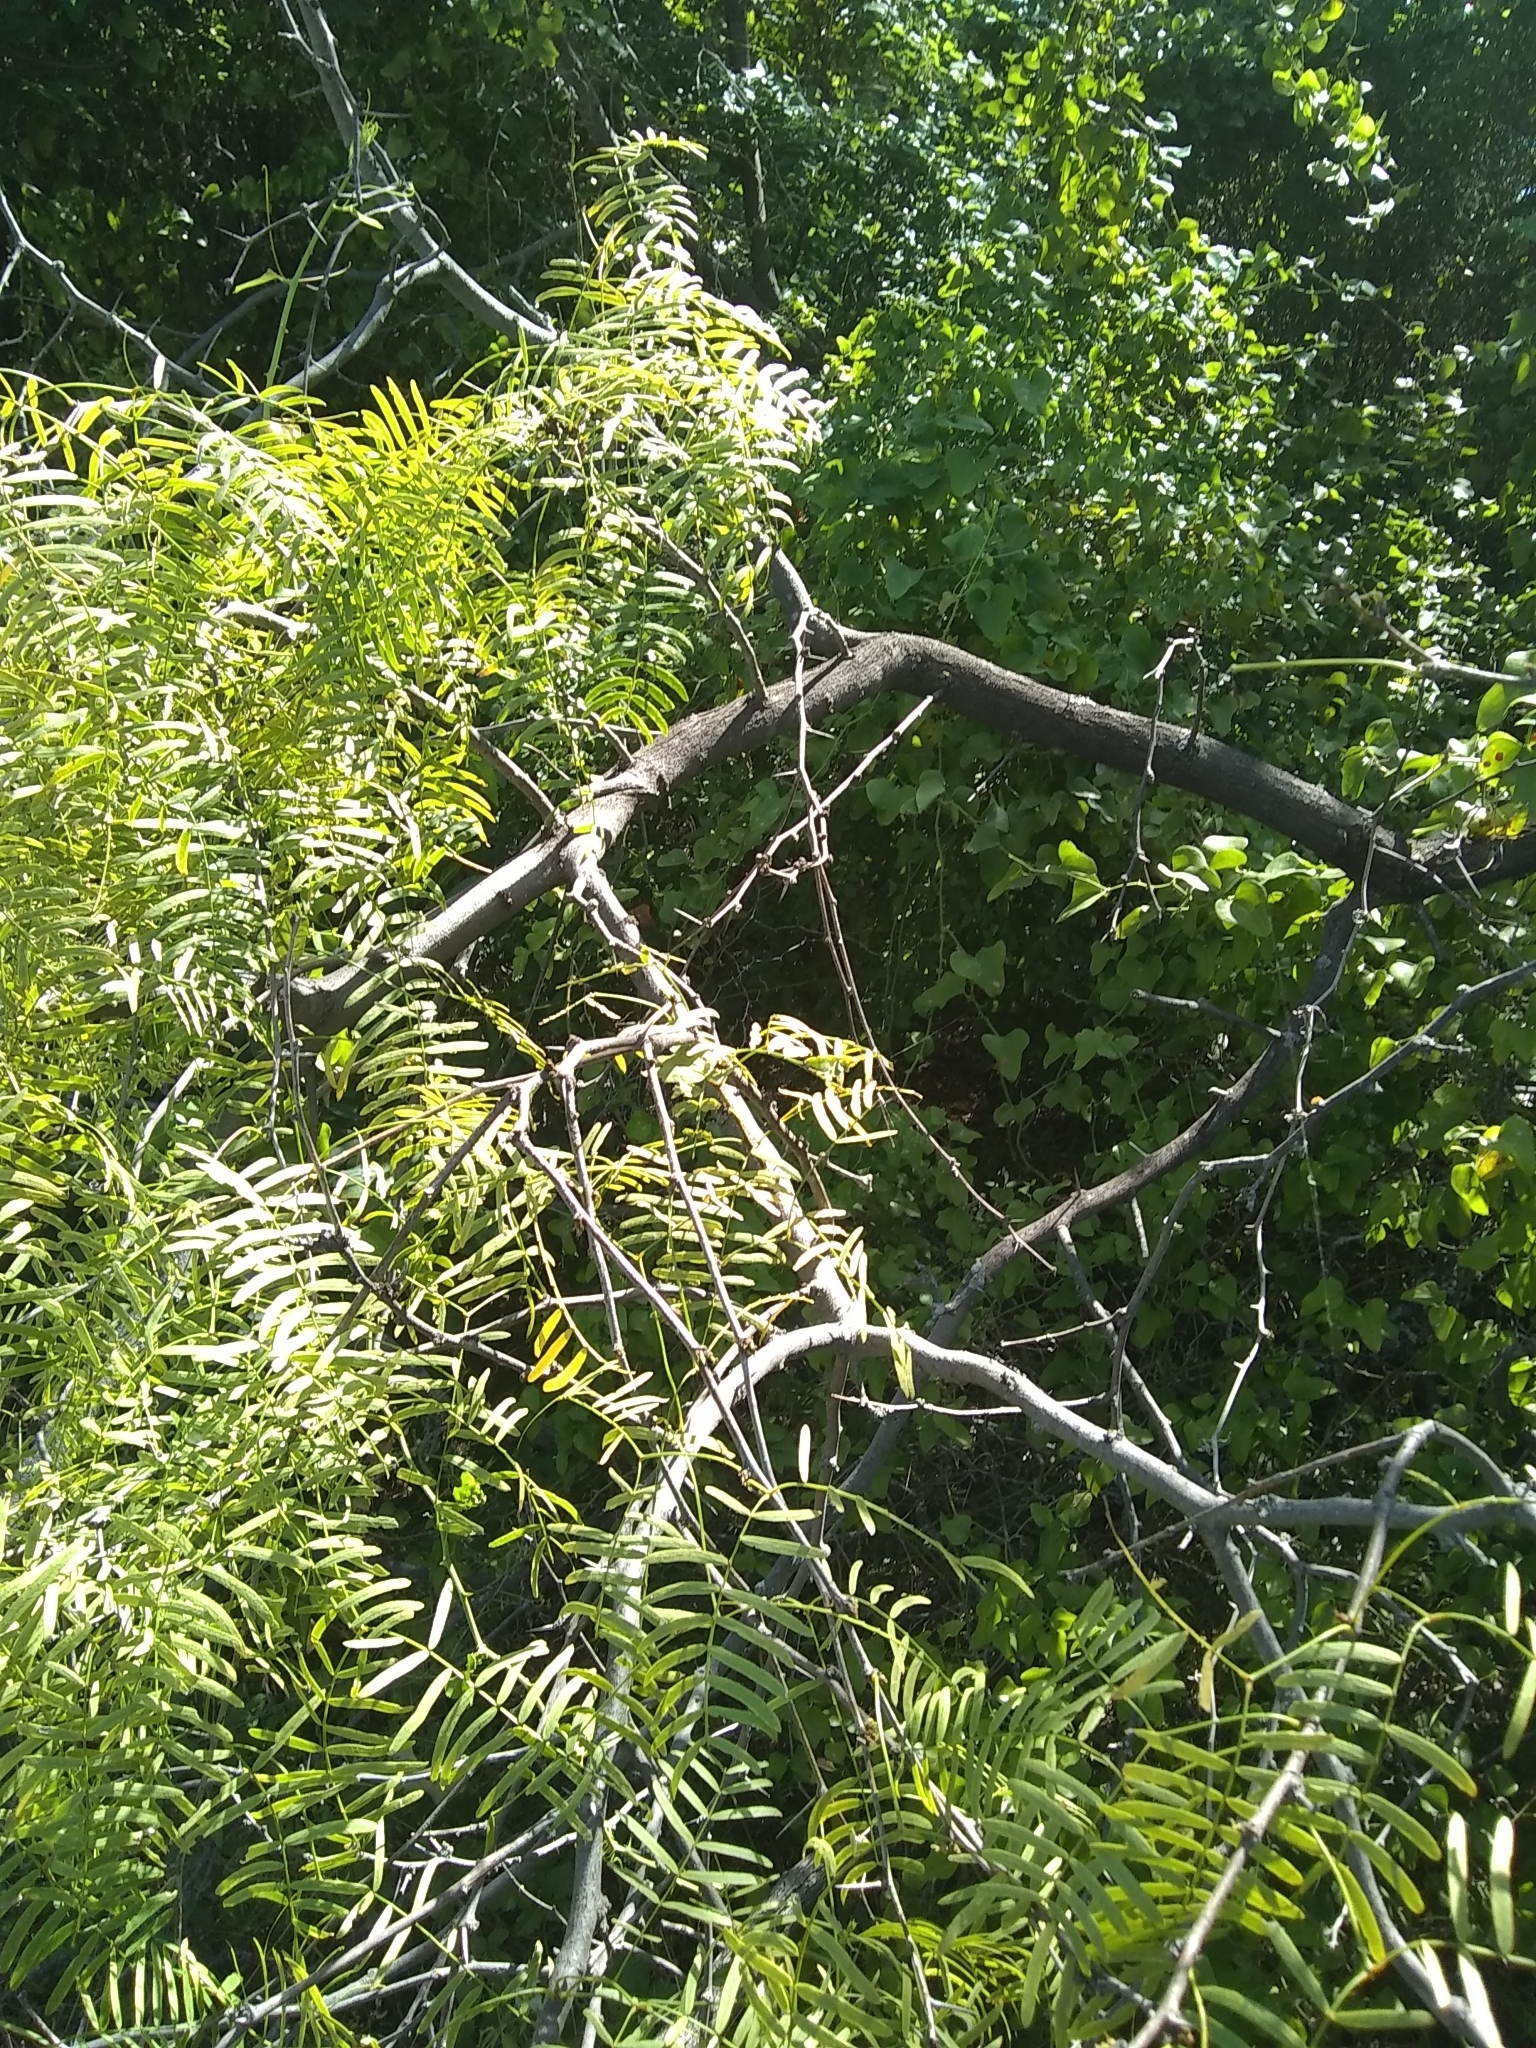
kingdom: Plantae
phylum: Tracheophyta
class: Magnoliopsida
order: Fabales
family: Fabaceae
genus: Prosopis
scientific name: Prosopis glandulosa
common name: Honey mesquite
